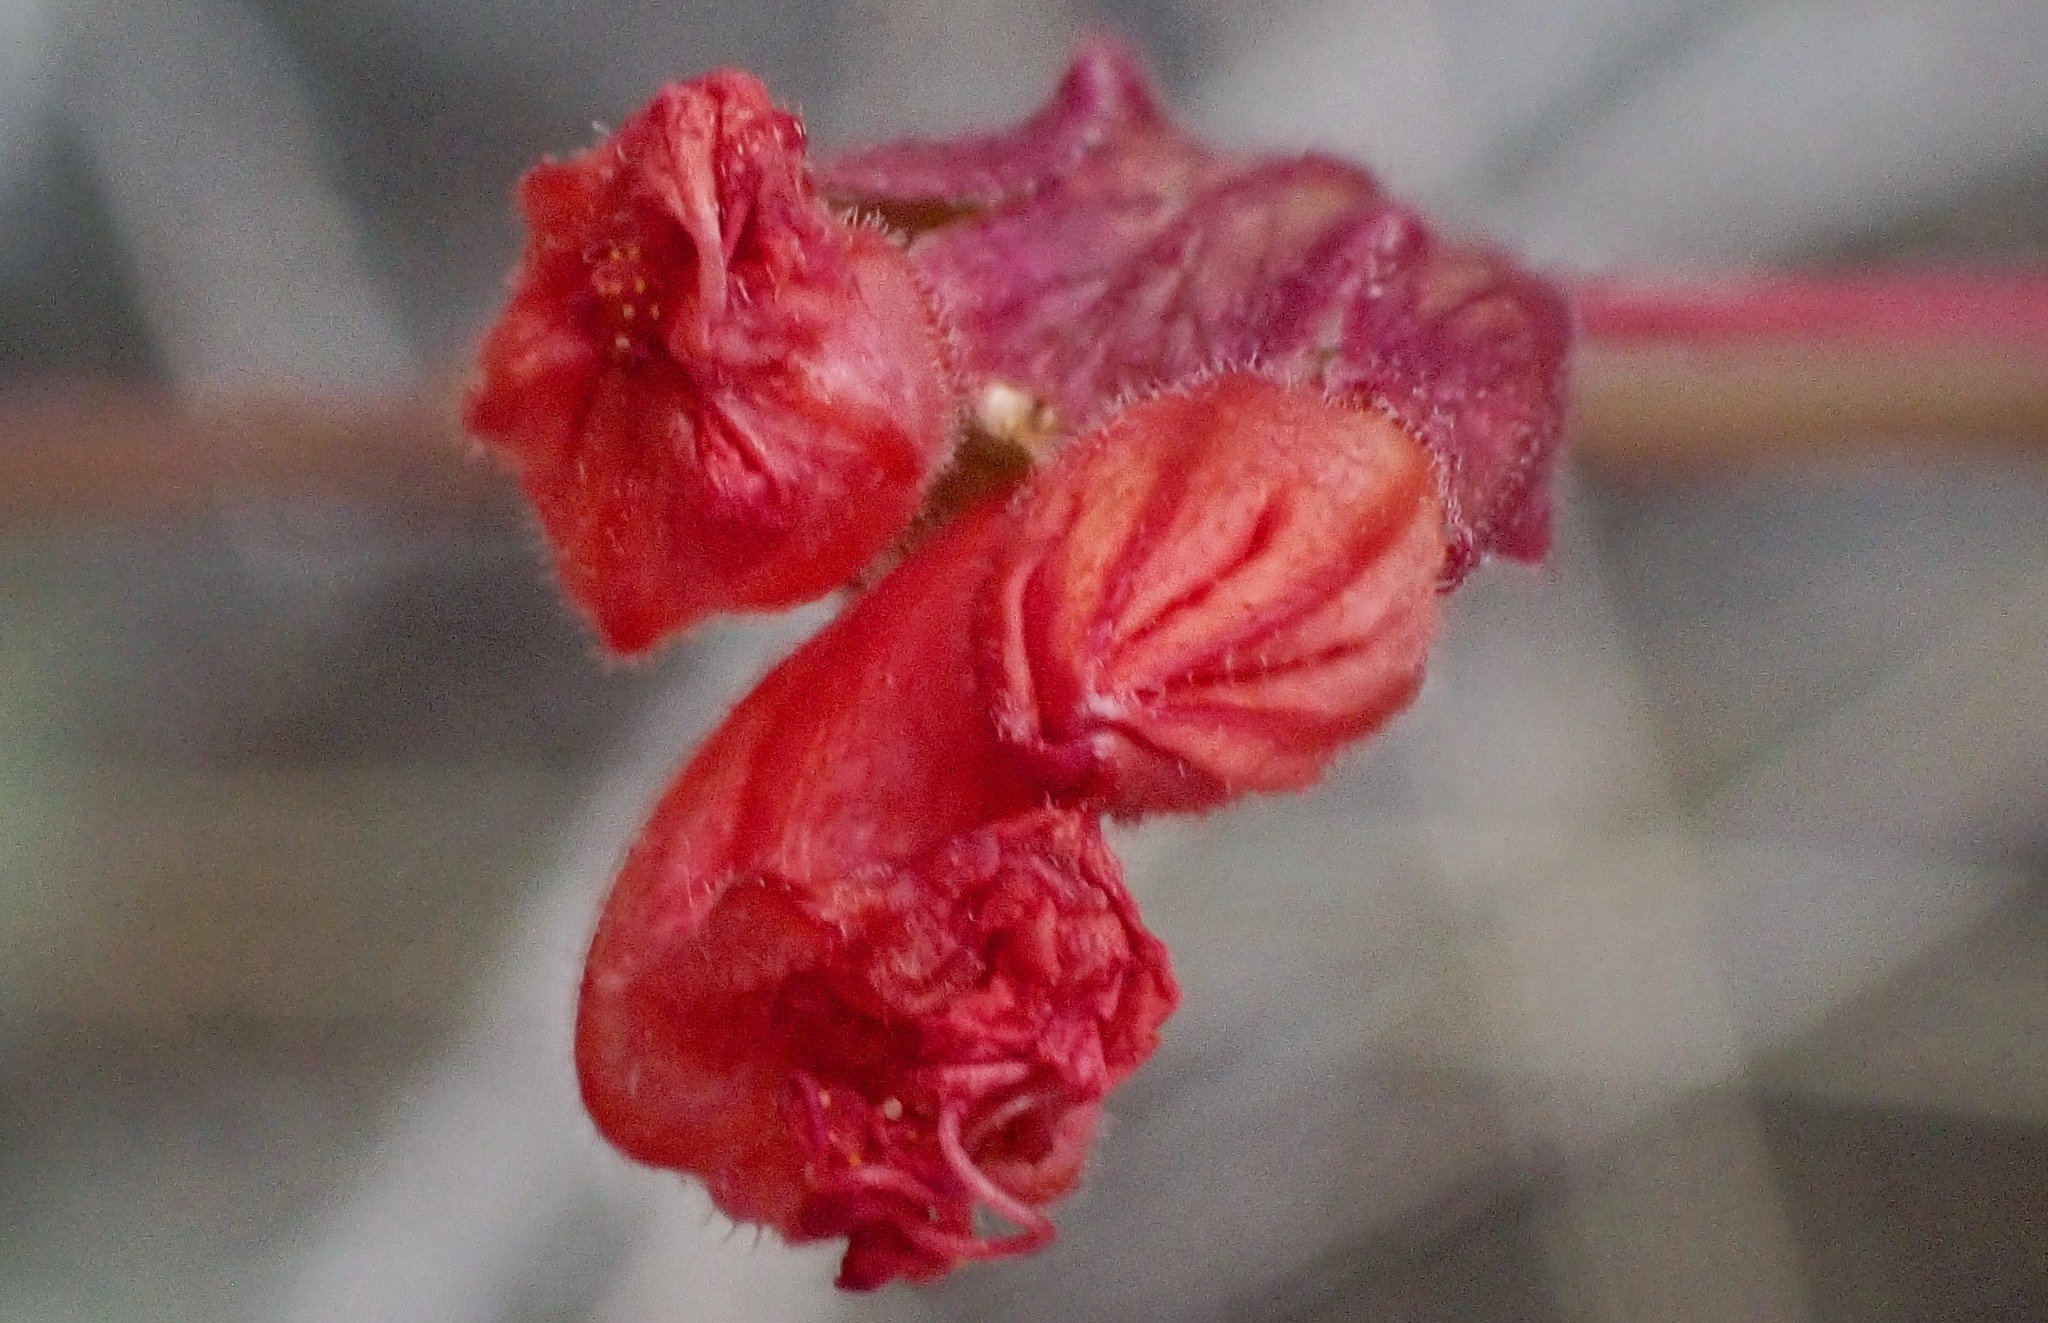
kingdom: Plantae
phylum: Tracheophyta
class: Magnoliopsida
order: Caryophyllales
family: Nyctaginaceae
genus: Mirabilis
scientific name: Mirabilis coccinea
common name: Scarlet four-o'clock
